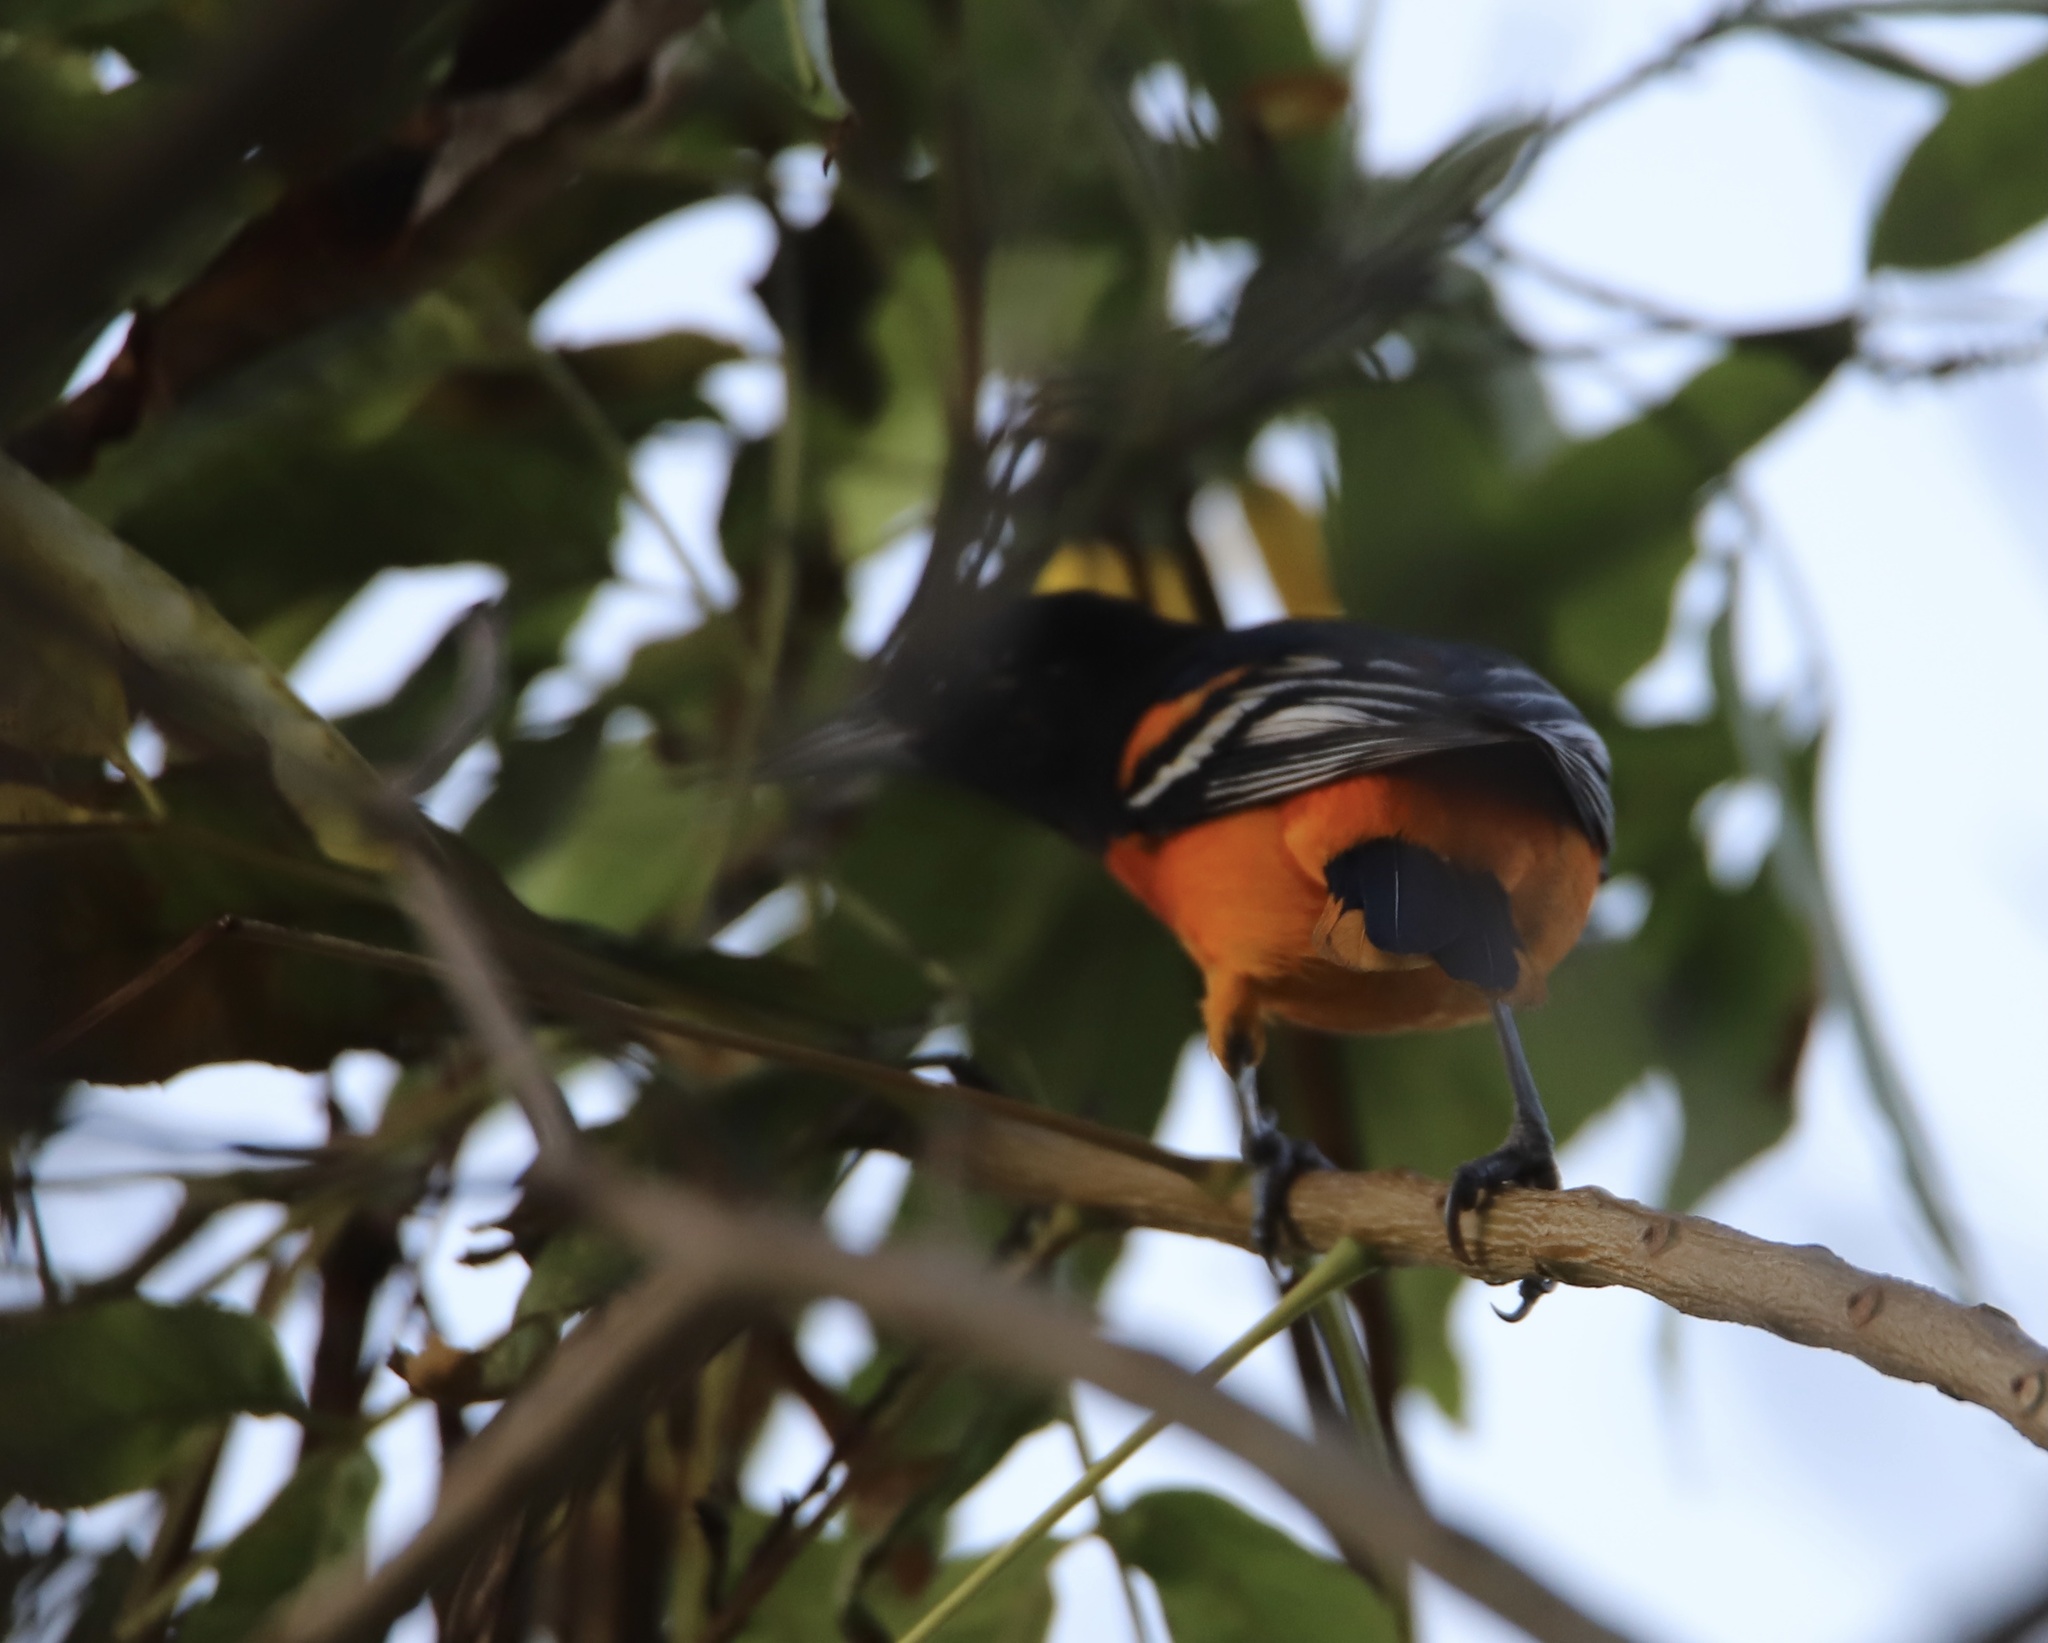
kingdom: Animalia
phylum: Chordata
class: Aves
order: Passeriformes
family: Icteridae
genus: Icterus
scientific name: Icterus galbula
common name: Baltimore oriole
